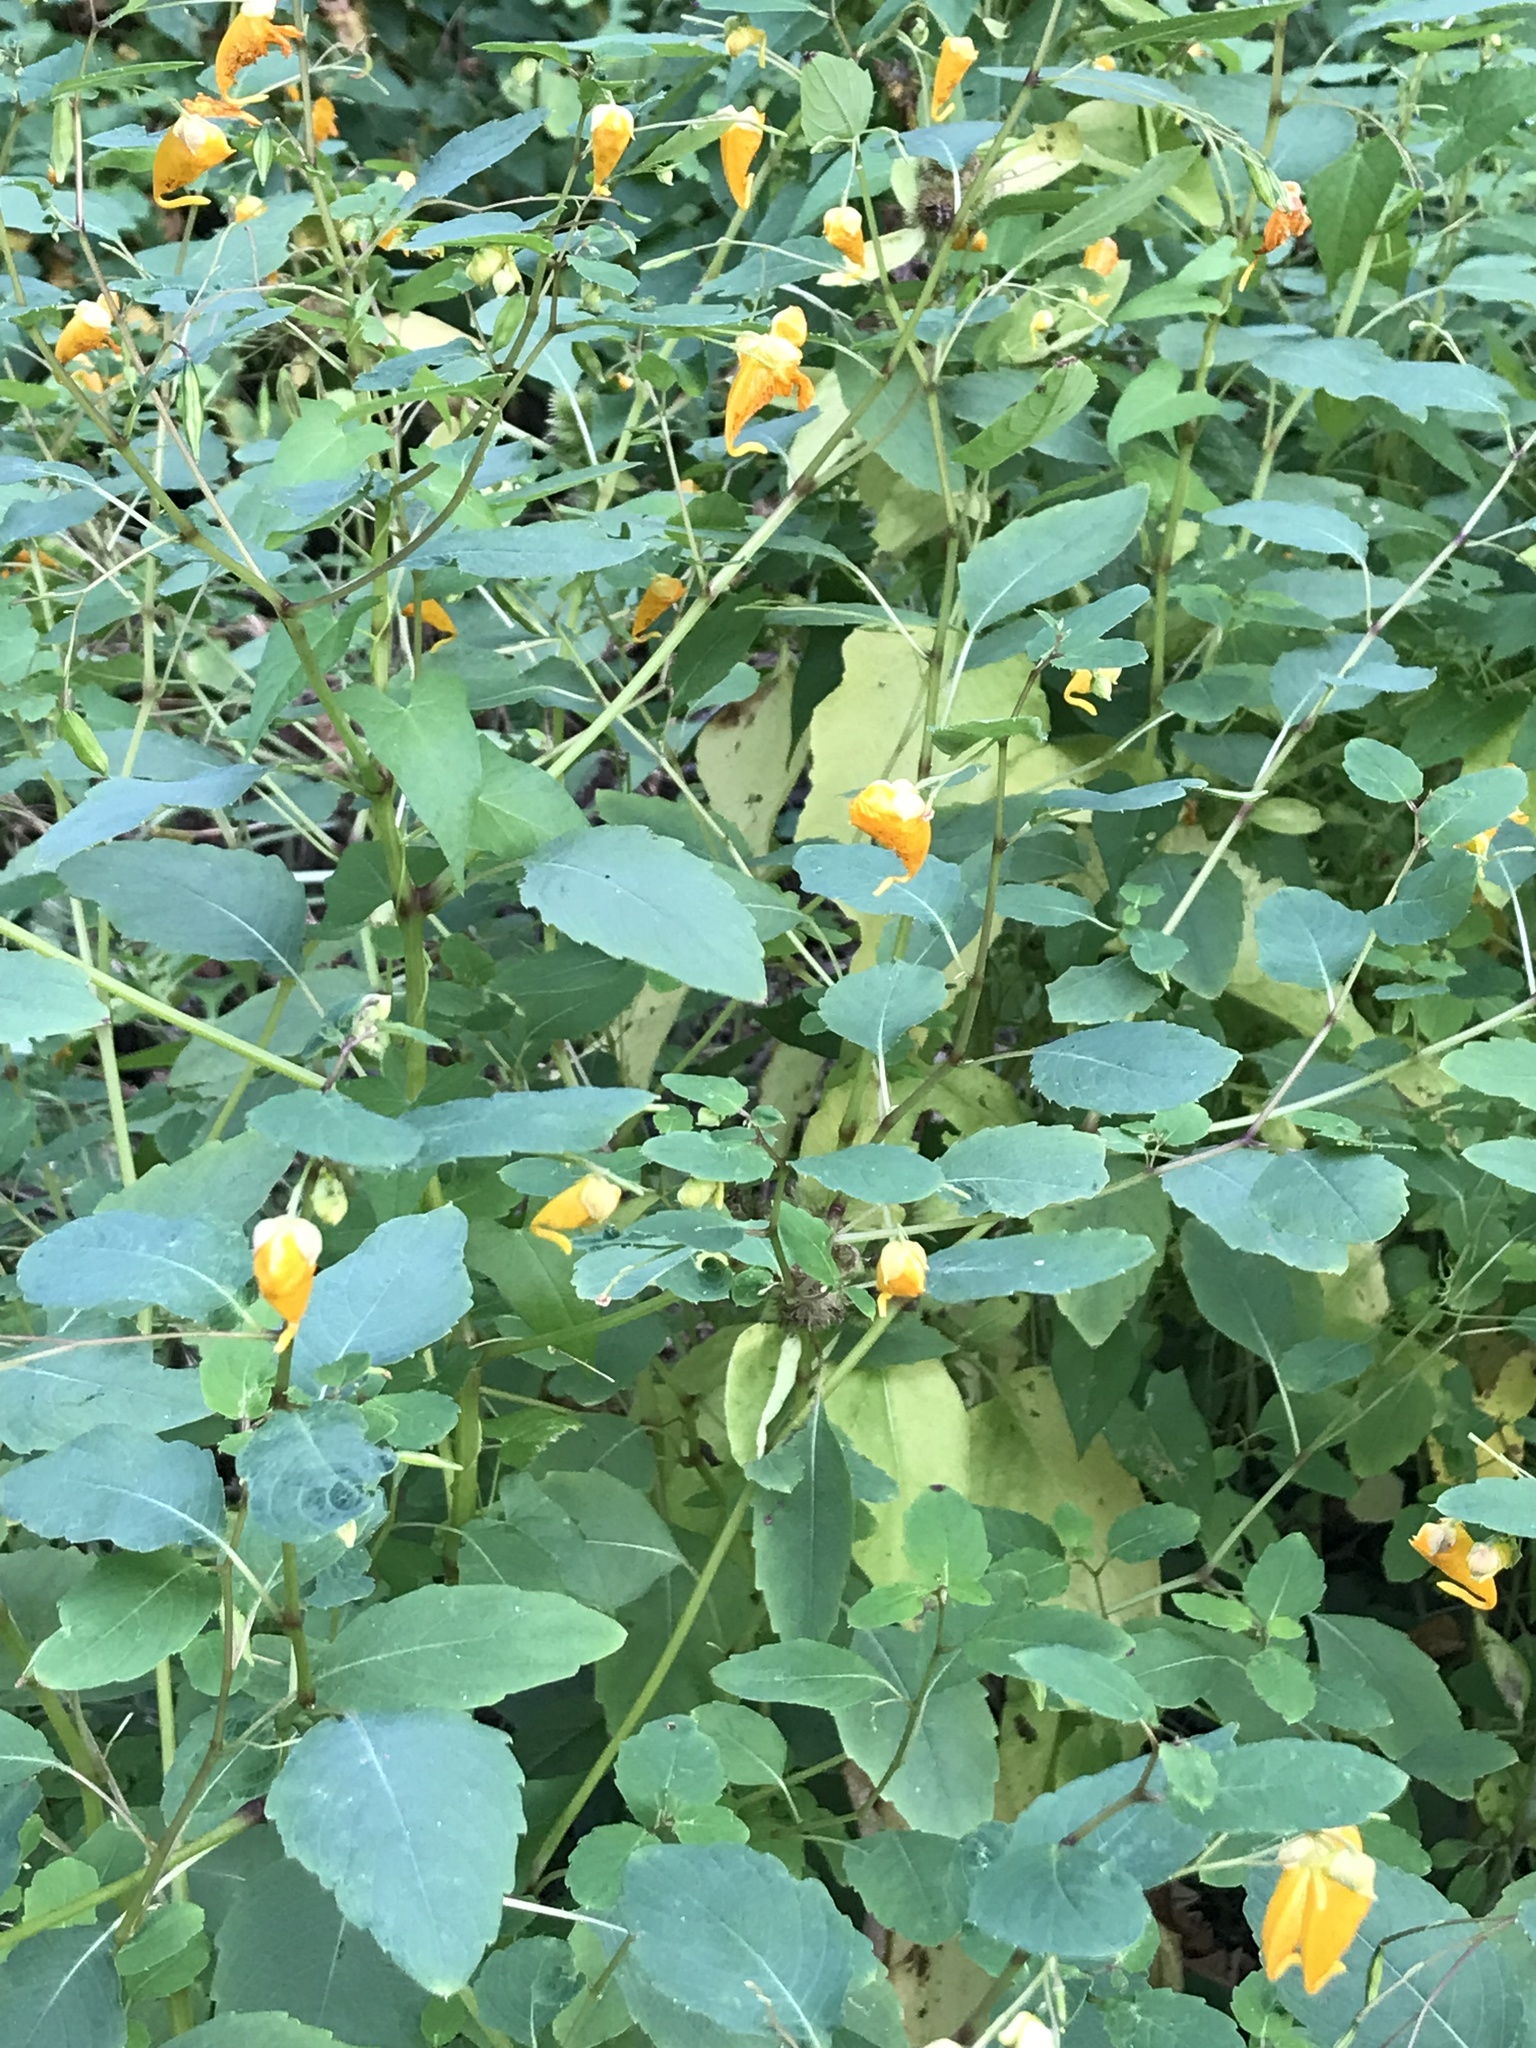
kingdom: Plantae
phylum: Tracheophyta
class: Magnoliopsida
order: Ericales
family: Balsaminaceae
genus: Impatiens
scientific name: Impatiens capensis
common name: Orange balsam
